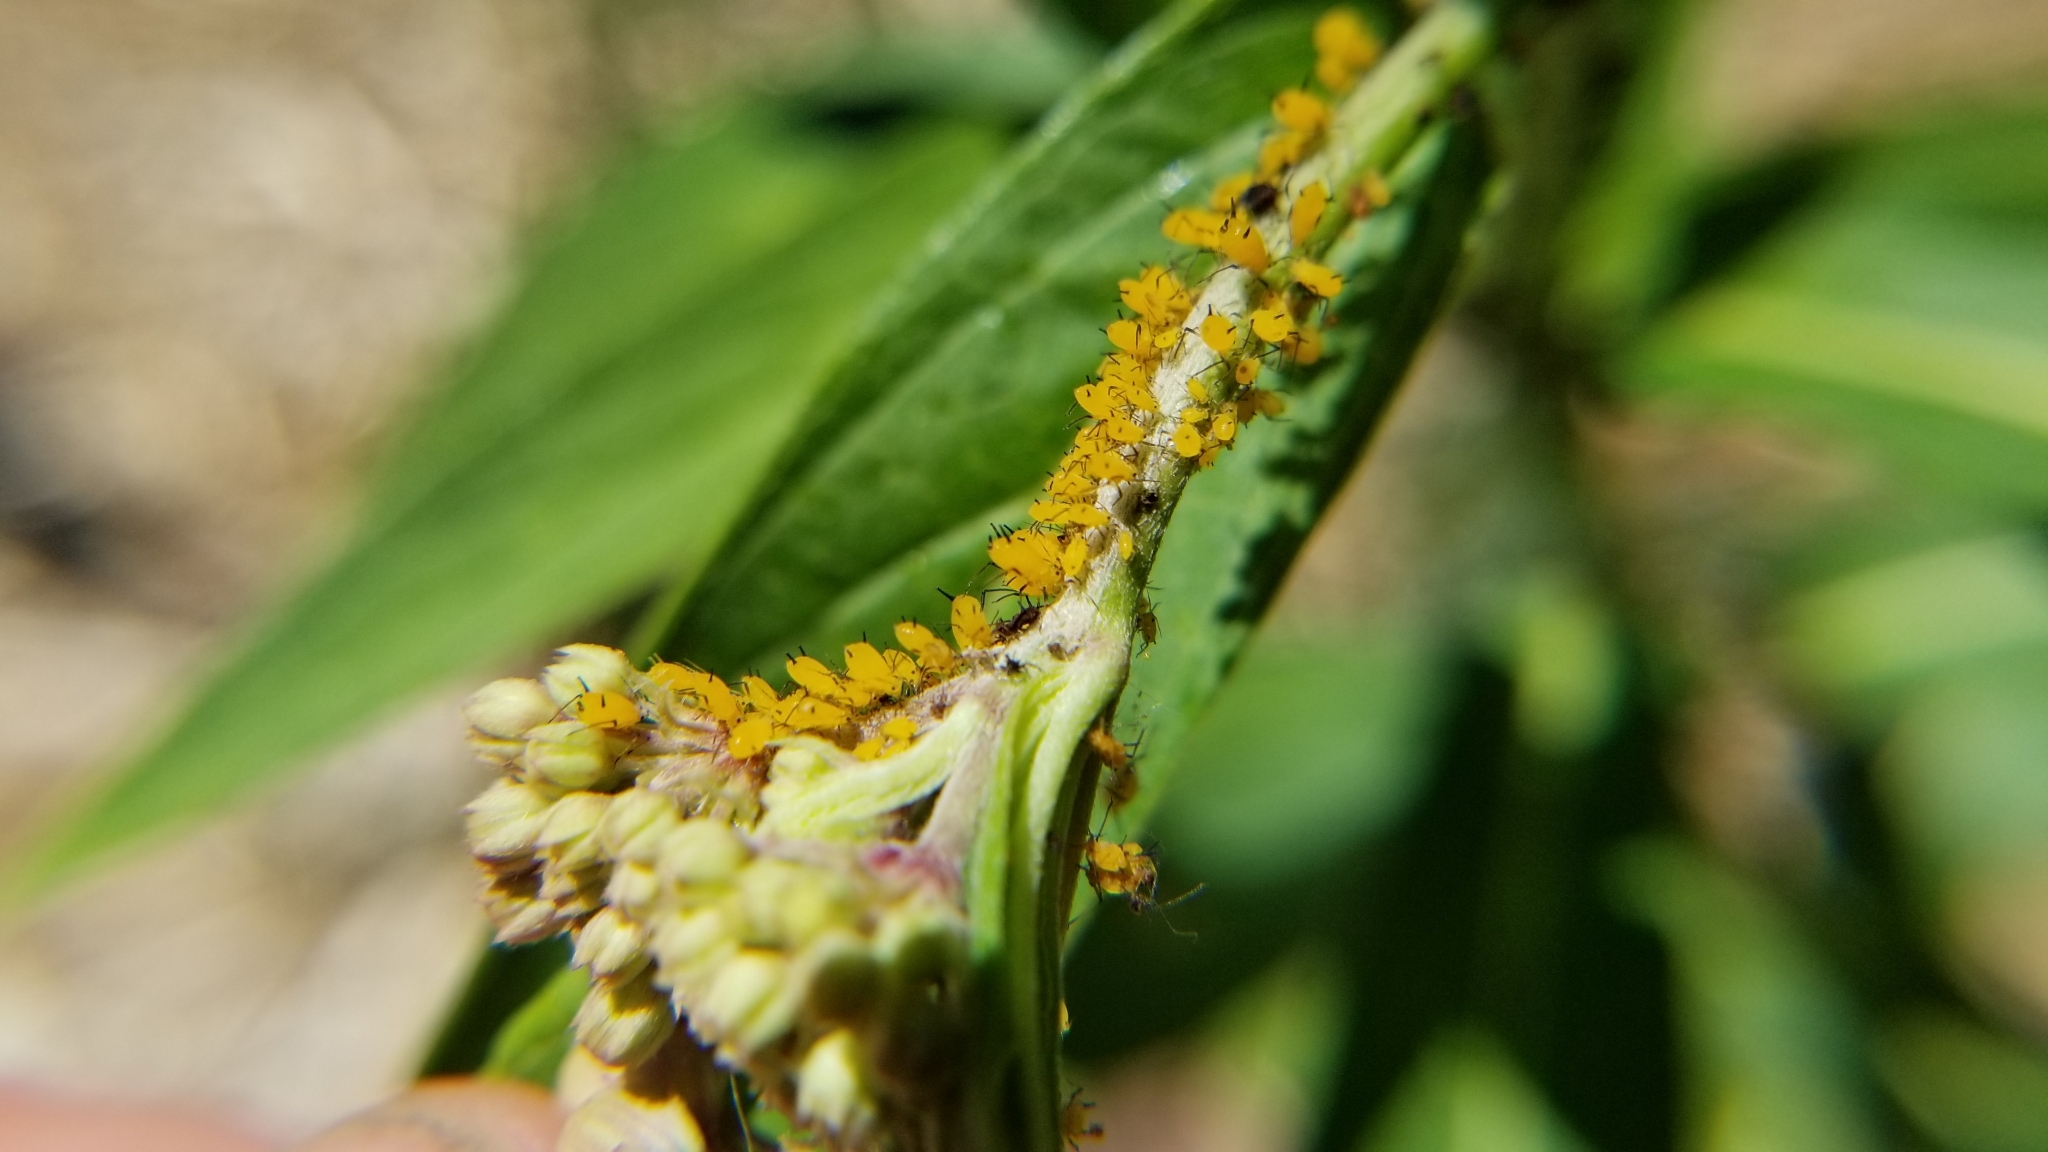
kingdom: Animalia
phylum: Arthropoda
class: Insecta
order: Hemiptera
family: Aphididae
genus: Aphis
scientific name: Aphis nerii
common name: Oleander aphid
